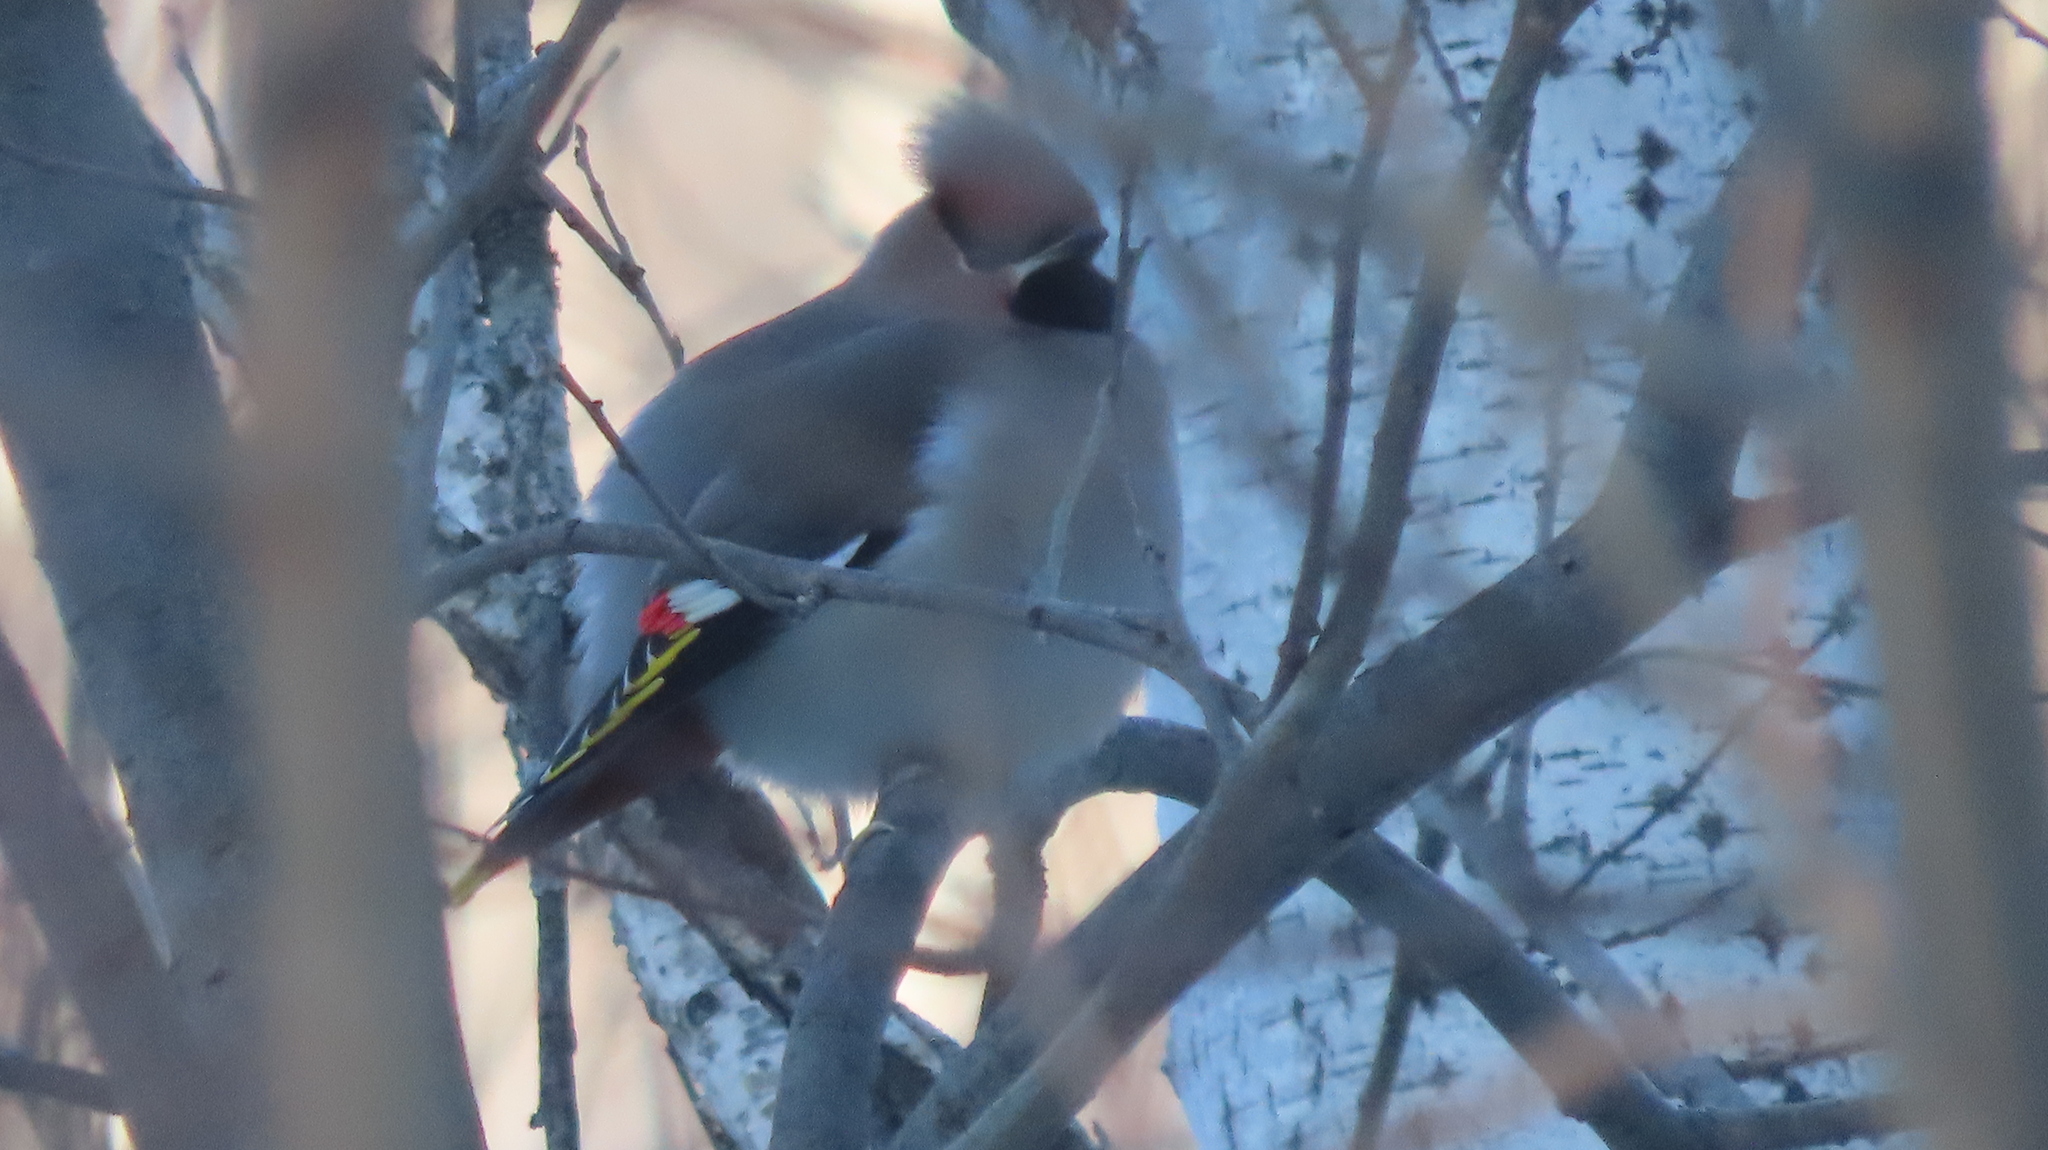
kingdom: Animalia
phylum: Chordata
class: Aves
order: Passeriformes
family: Bombycillidae
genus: Bombycilla
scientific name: Bombycilla garrulus
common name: Bohemian waxwing
